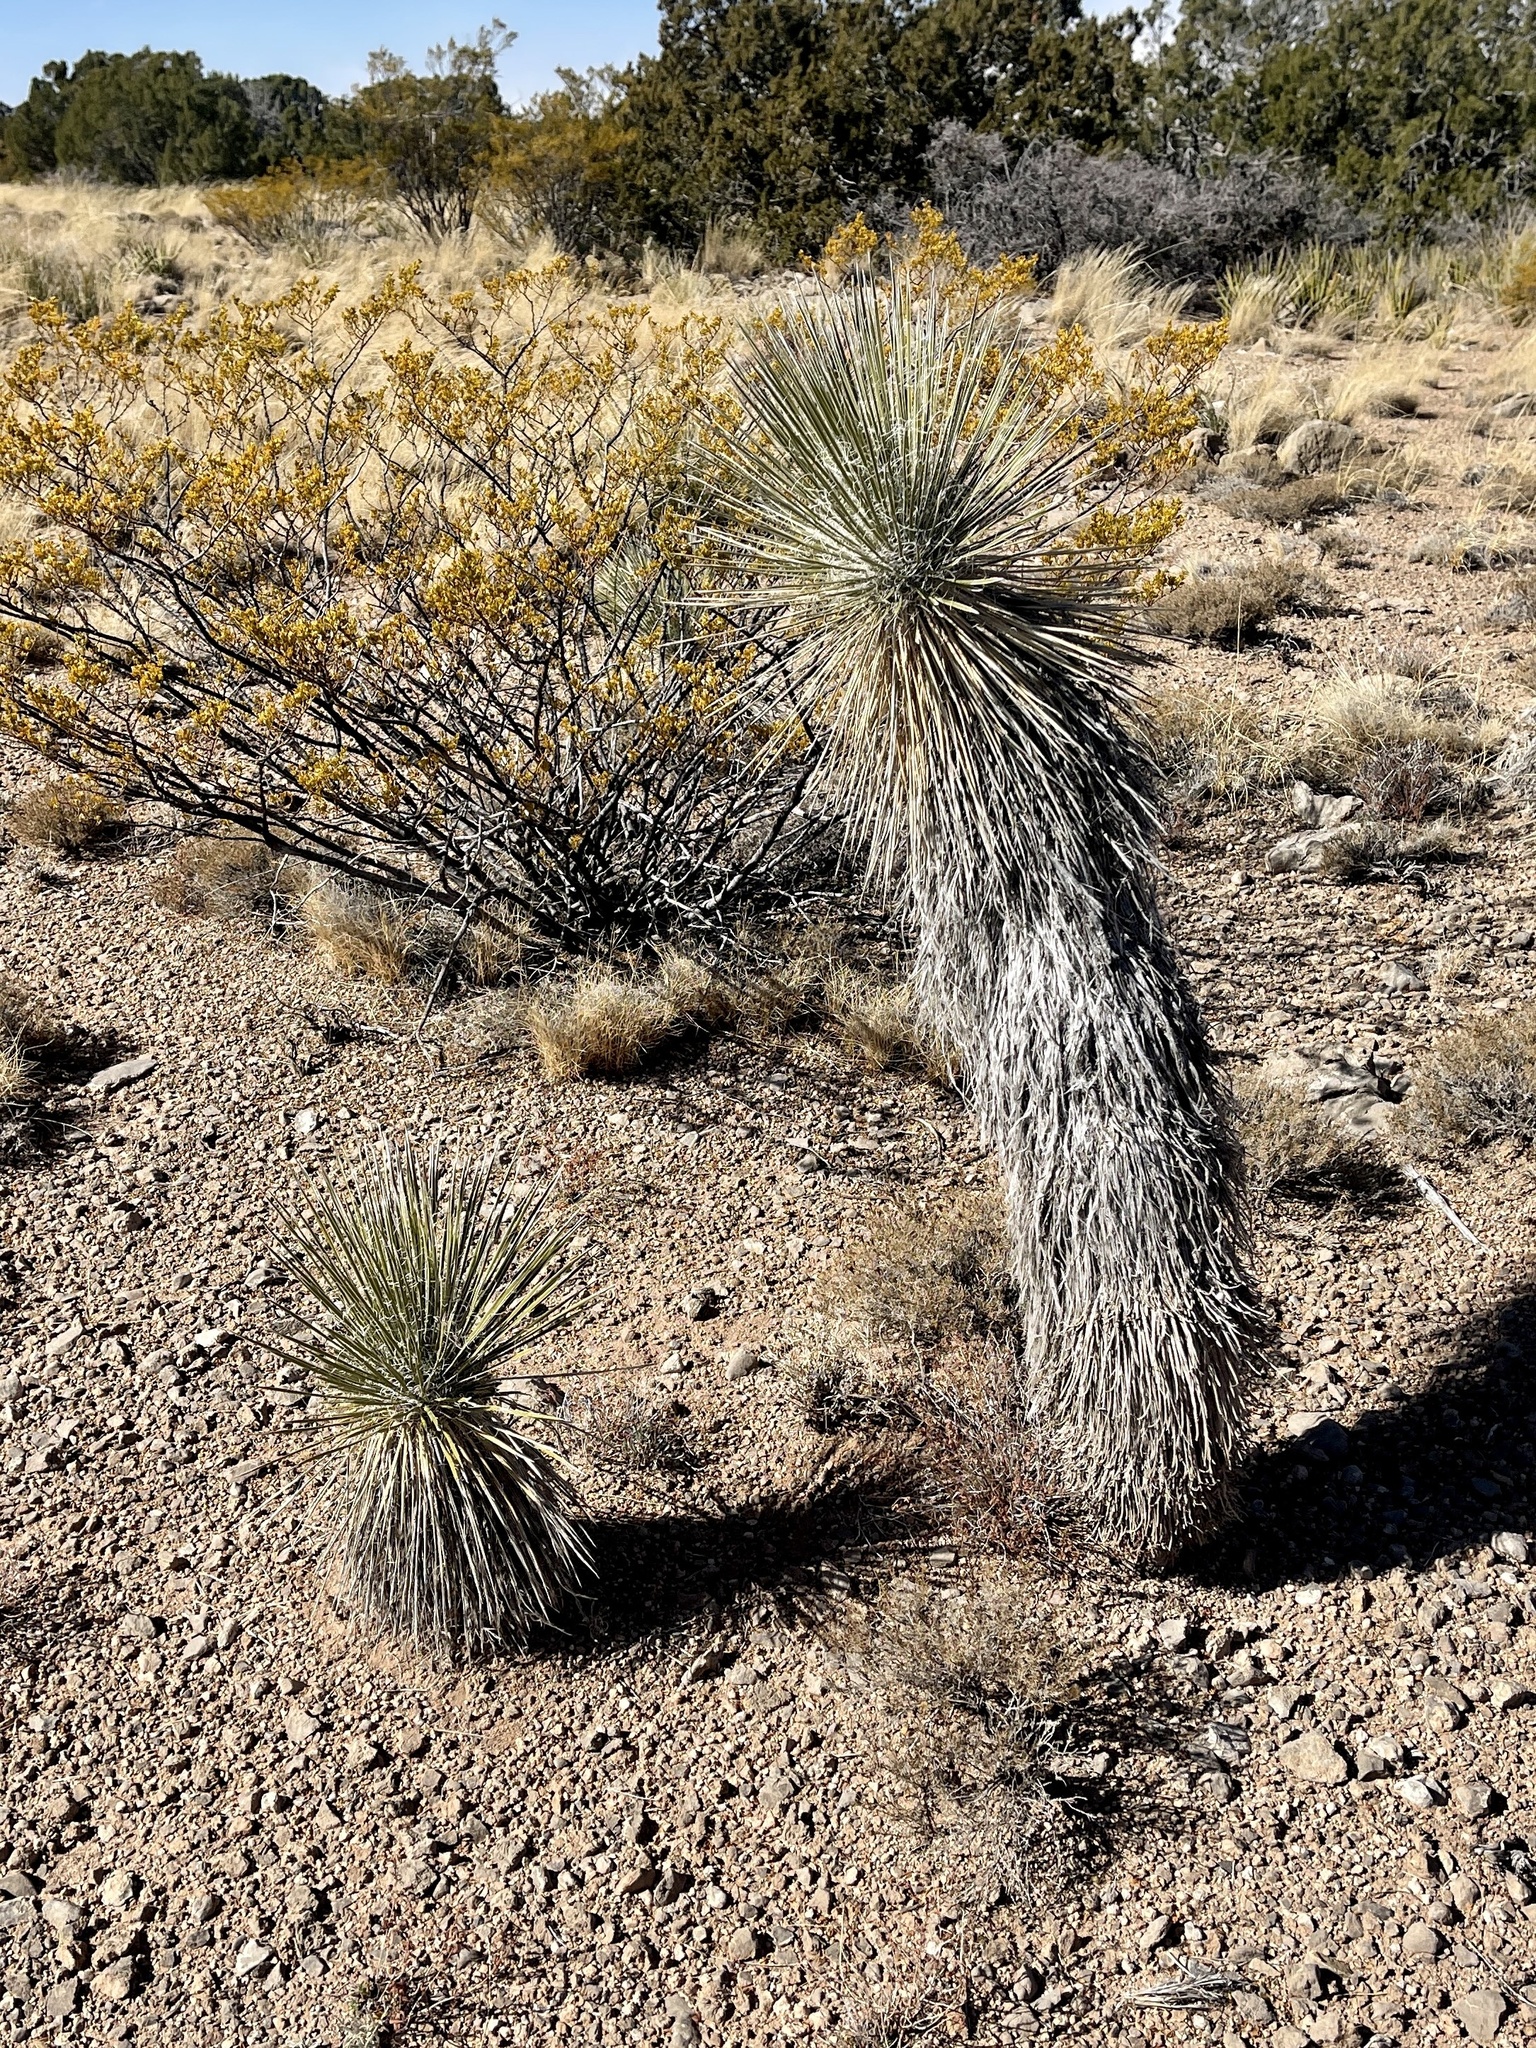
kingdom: Plantae
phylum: Tracheophyta
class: Liliopsida
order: Asparagales
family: Asparagaceae
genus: Yucca
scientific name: Yucca elata
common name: Palmella
